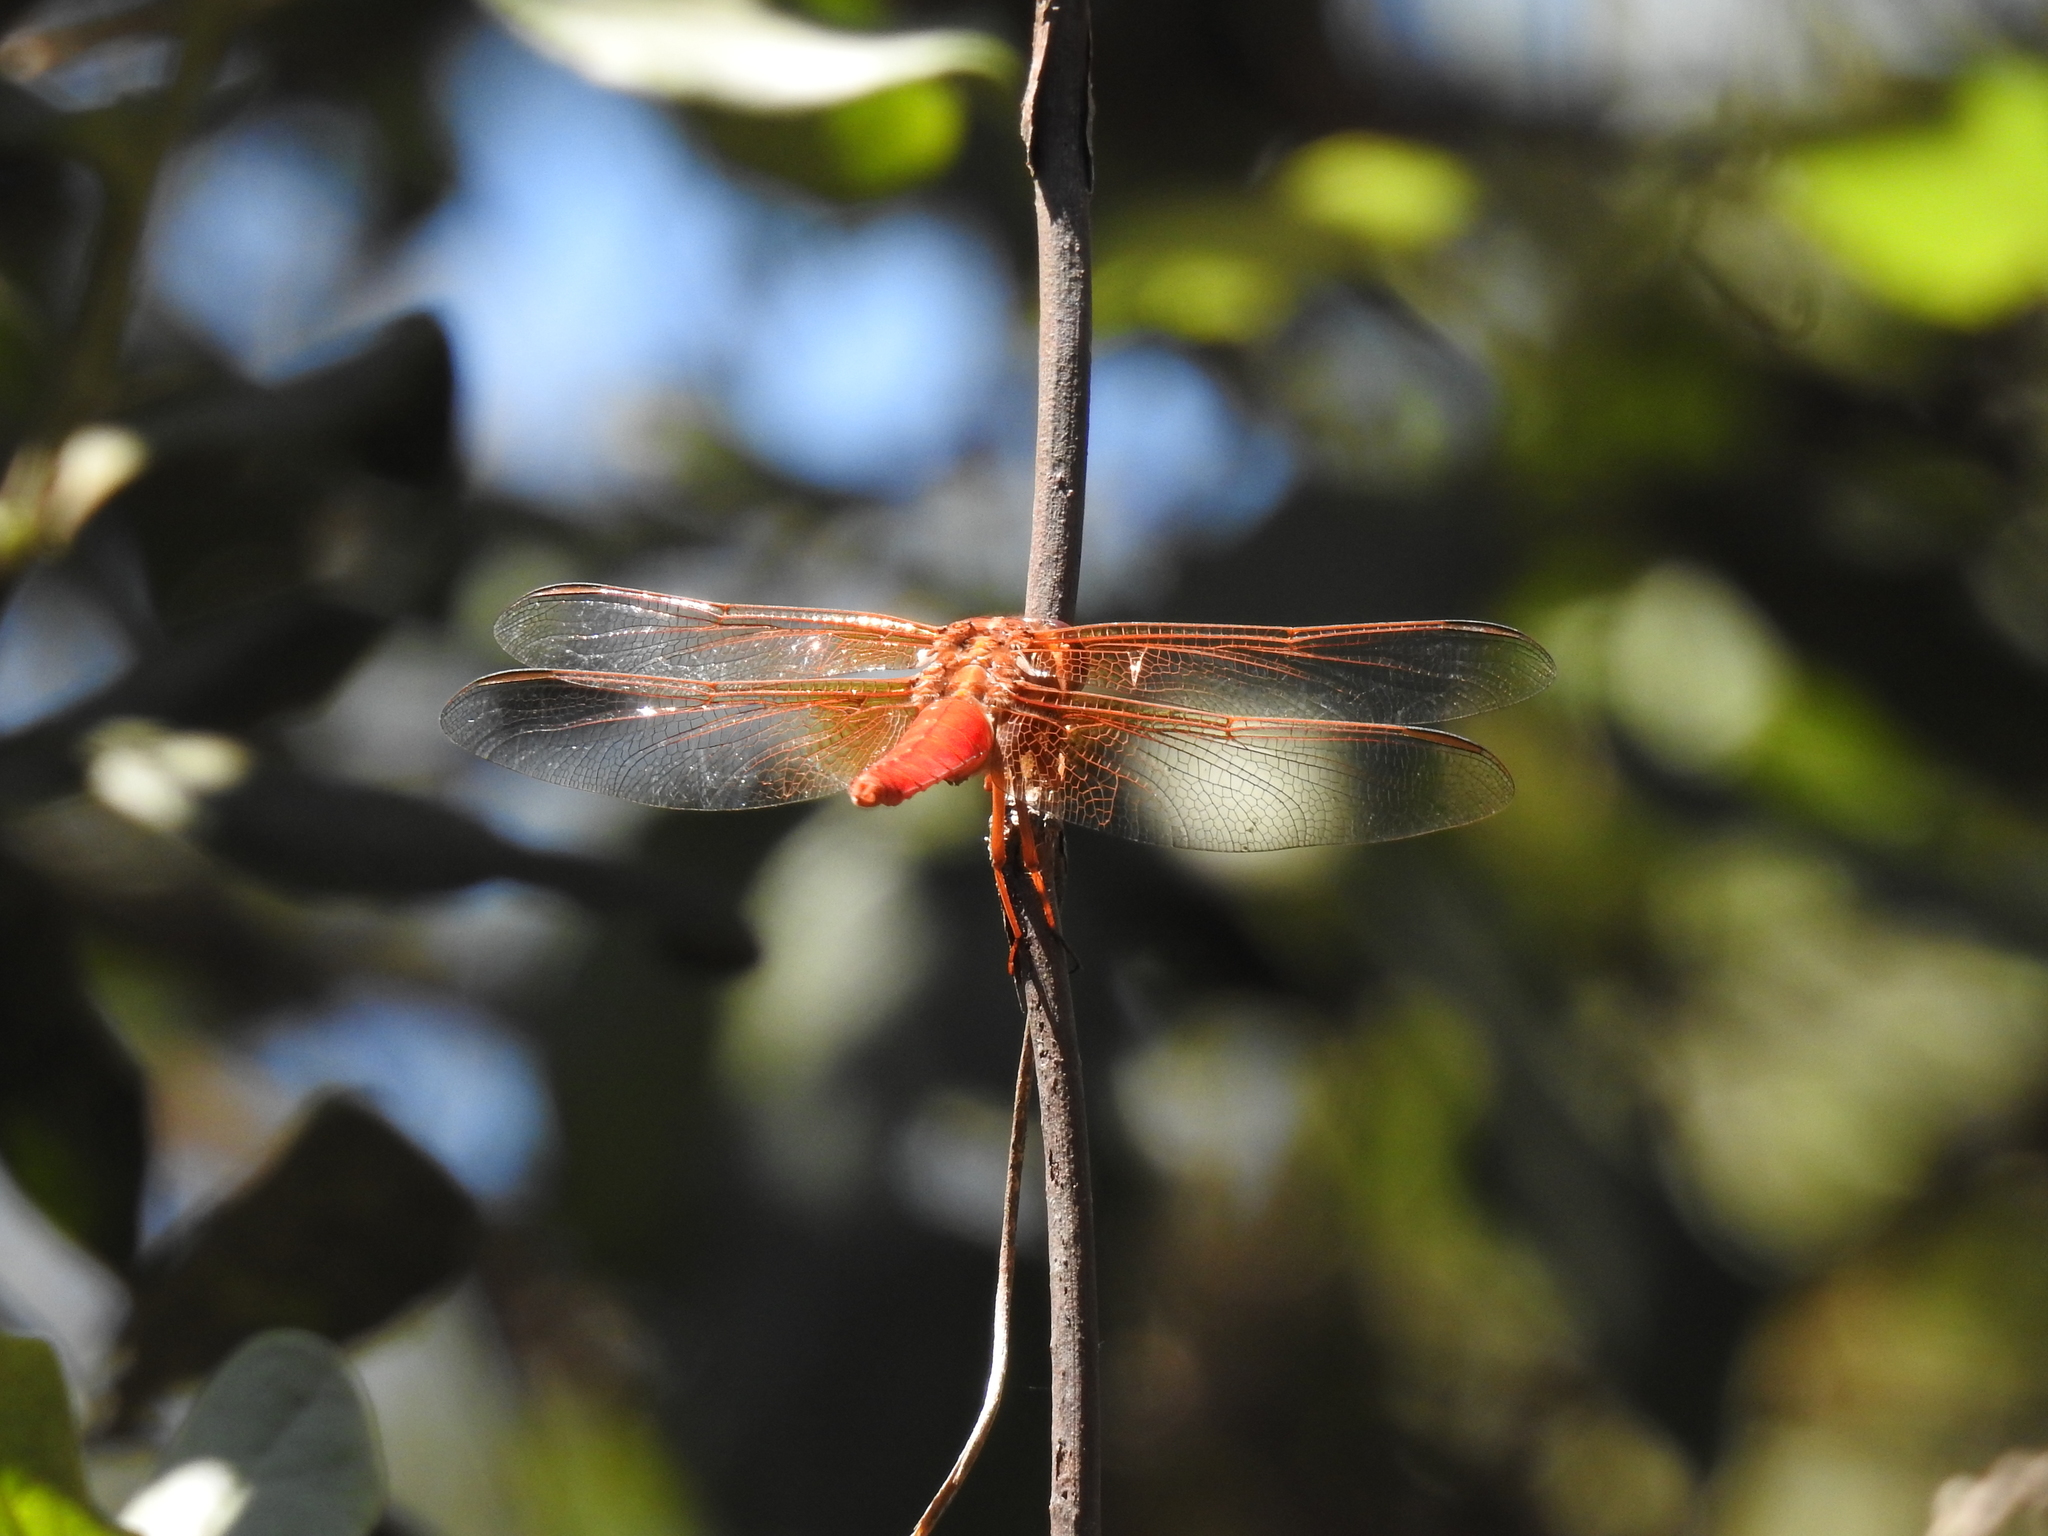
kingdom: Animalia
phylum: Arthropoda
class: Insecta
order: Odonata
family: Libellulidae
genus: Libellula
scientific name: Libellula croceipennis
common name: Neon skimmer
